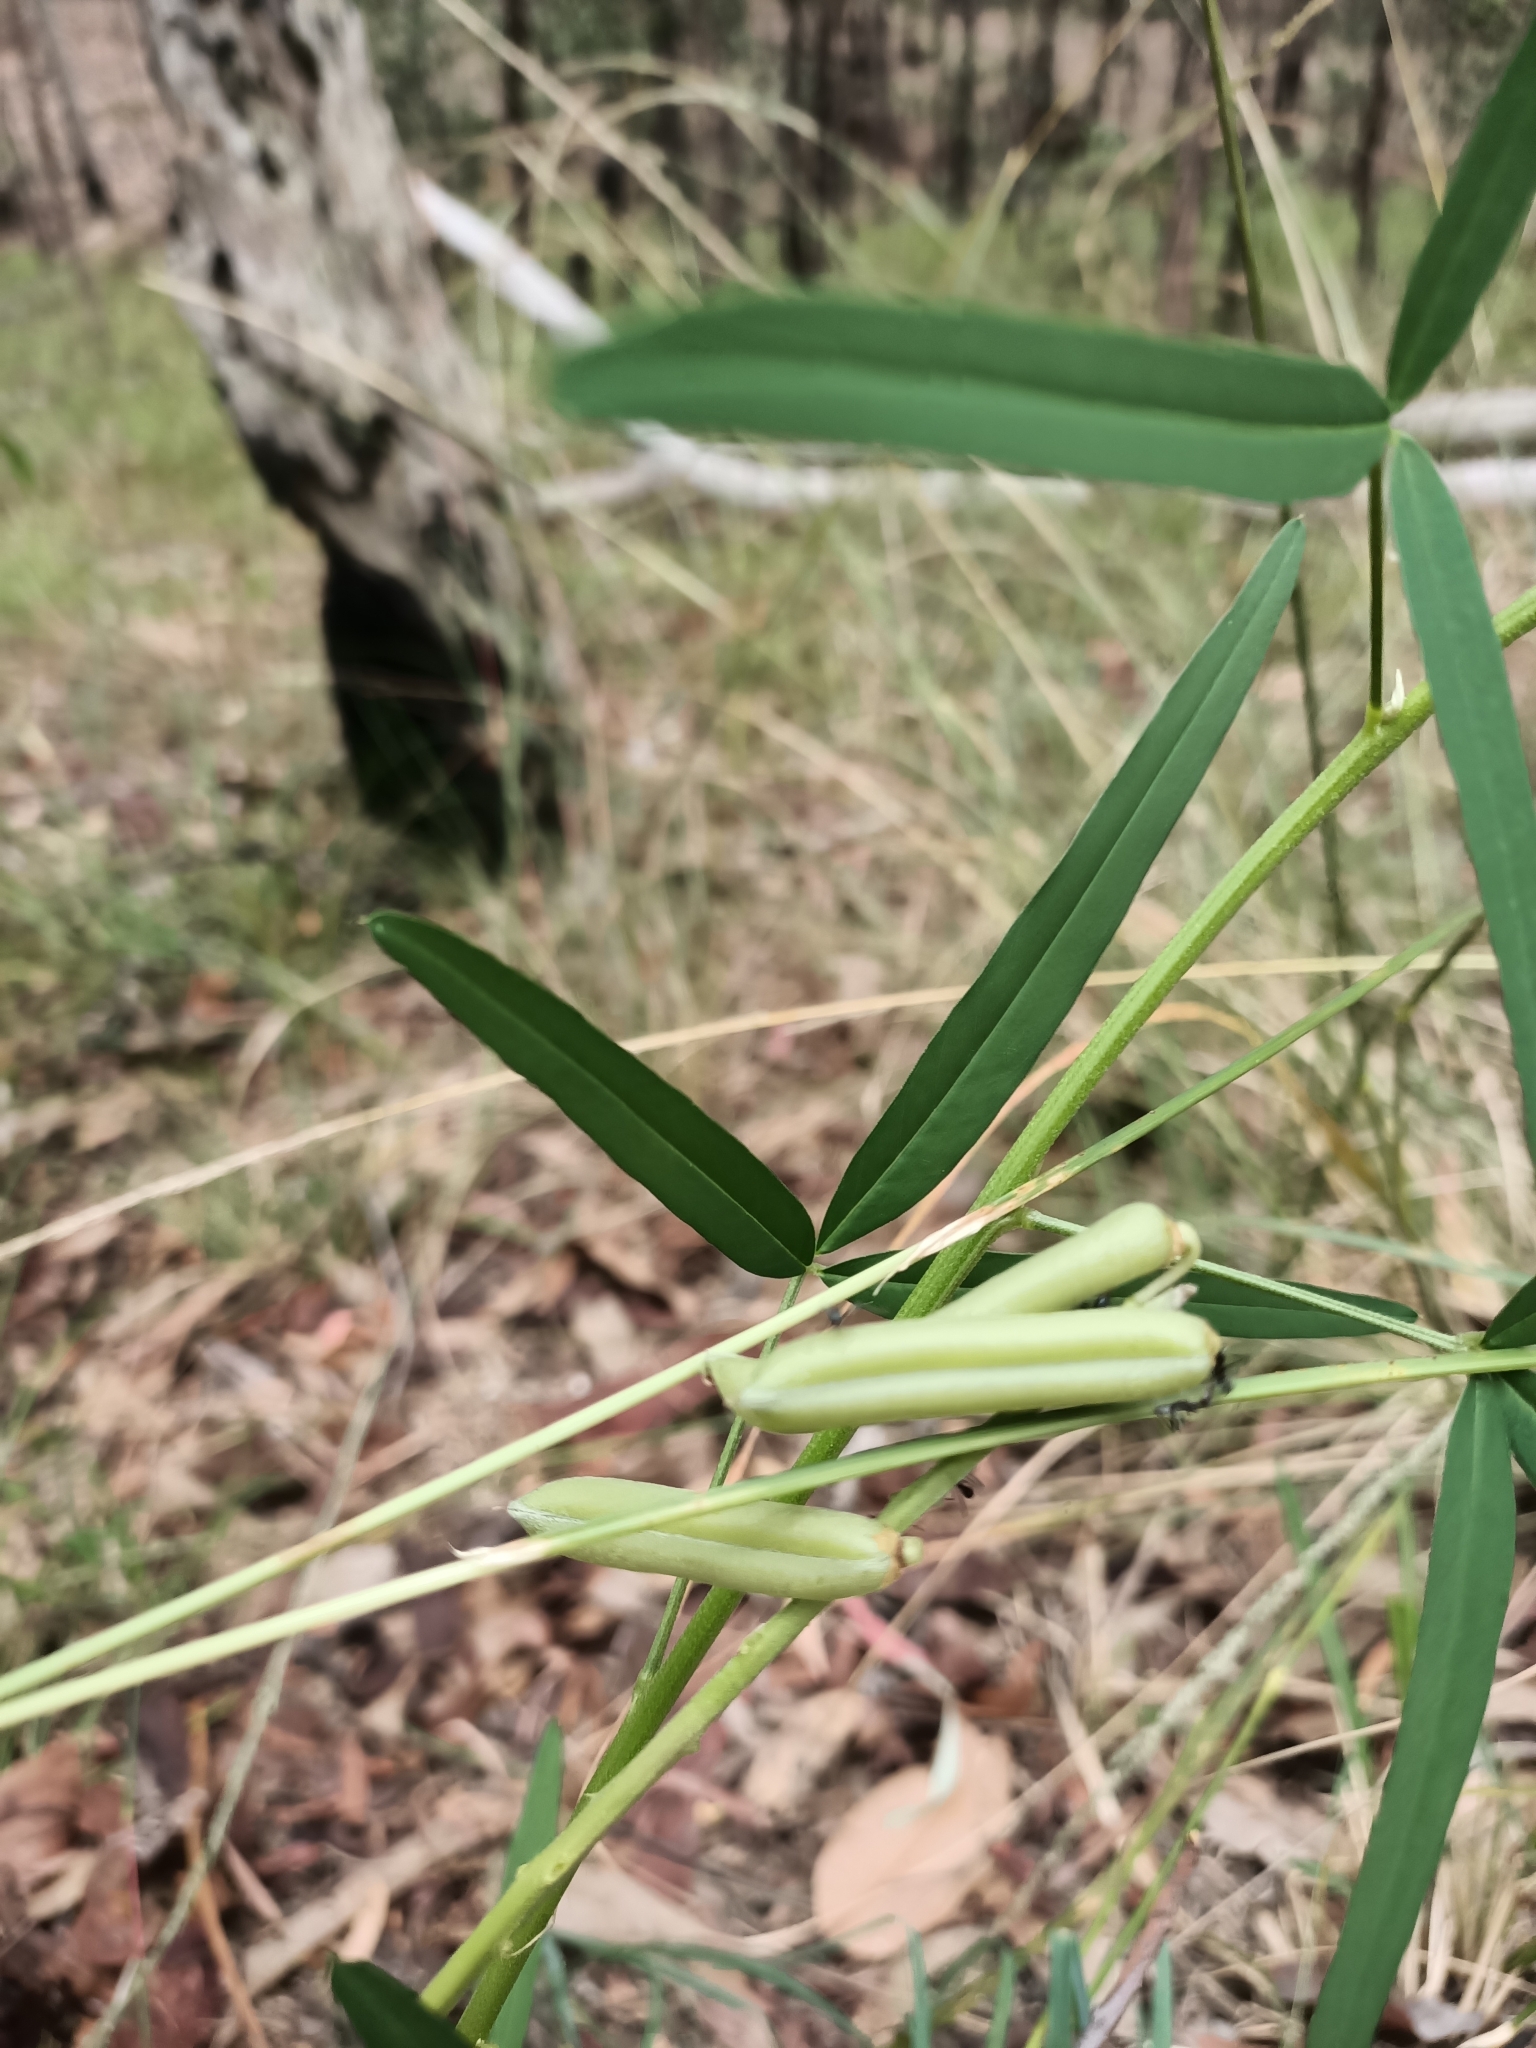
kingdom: Plantae
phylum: Tracheophyta
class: Magnoliopsida
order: Fabales
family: Fabaceae
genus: Crotalaria
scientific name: Crotalaria lanceolata
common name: Lanceleaf rattlebox
